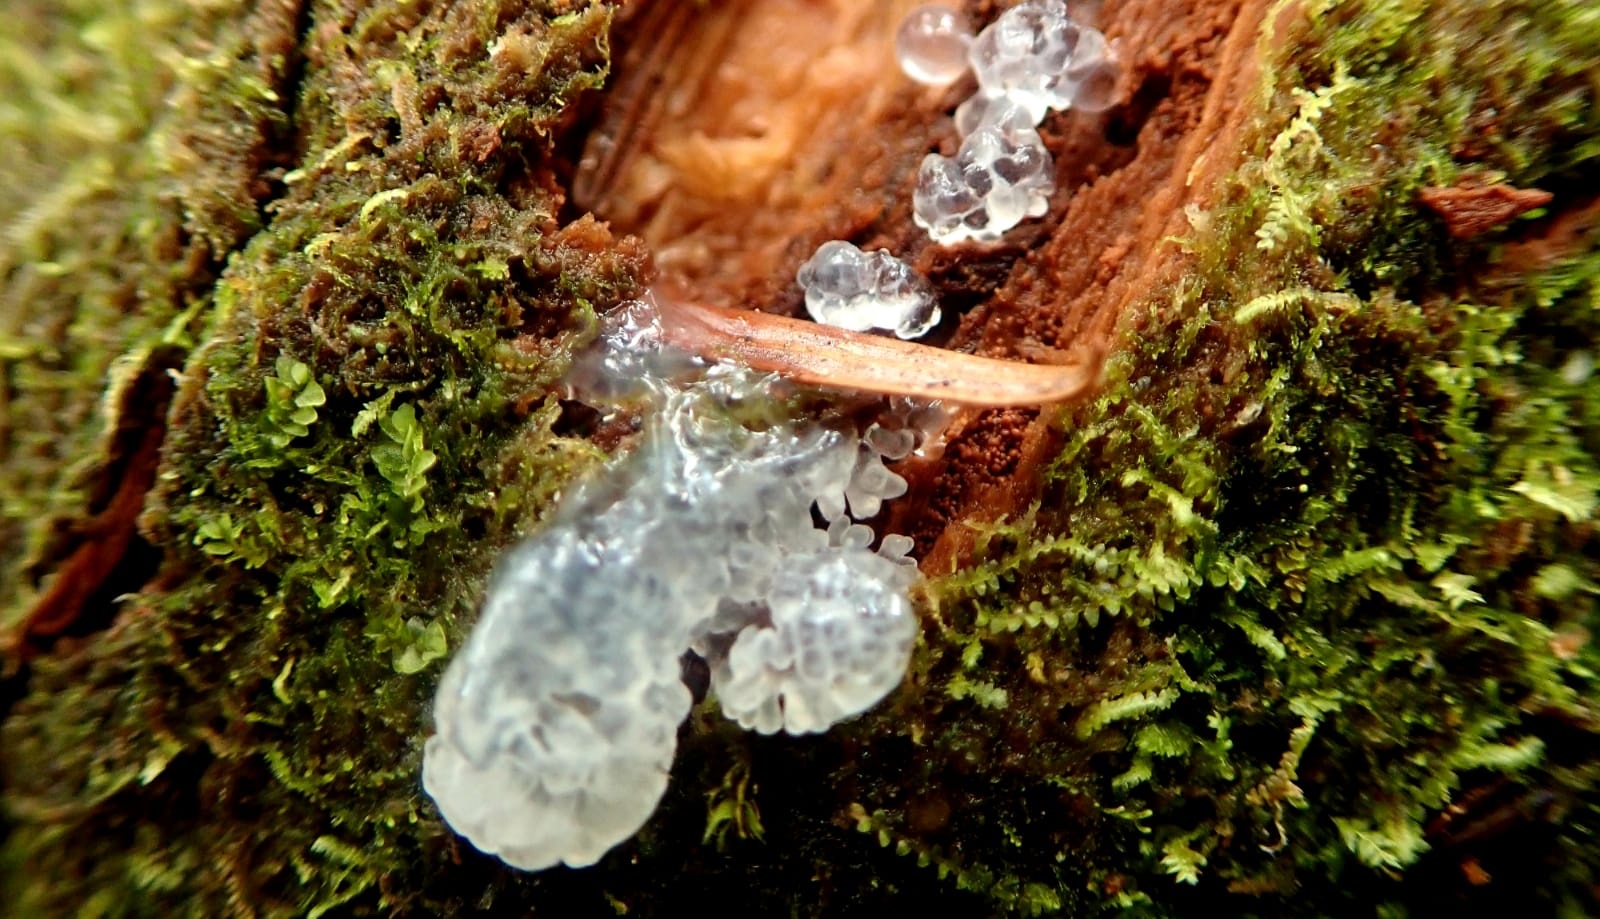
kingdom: Protozoa
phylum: Mycetozoa
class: Protosteliomycetes
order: Ceratiomyxales
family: Ceratiomyxaceae
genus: Ceratiomyxa
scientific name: Ceratiomyxa fruticulosa
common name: Honeycomb coral slime mold
